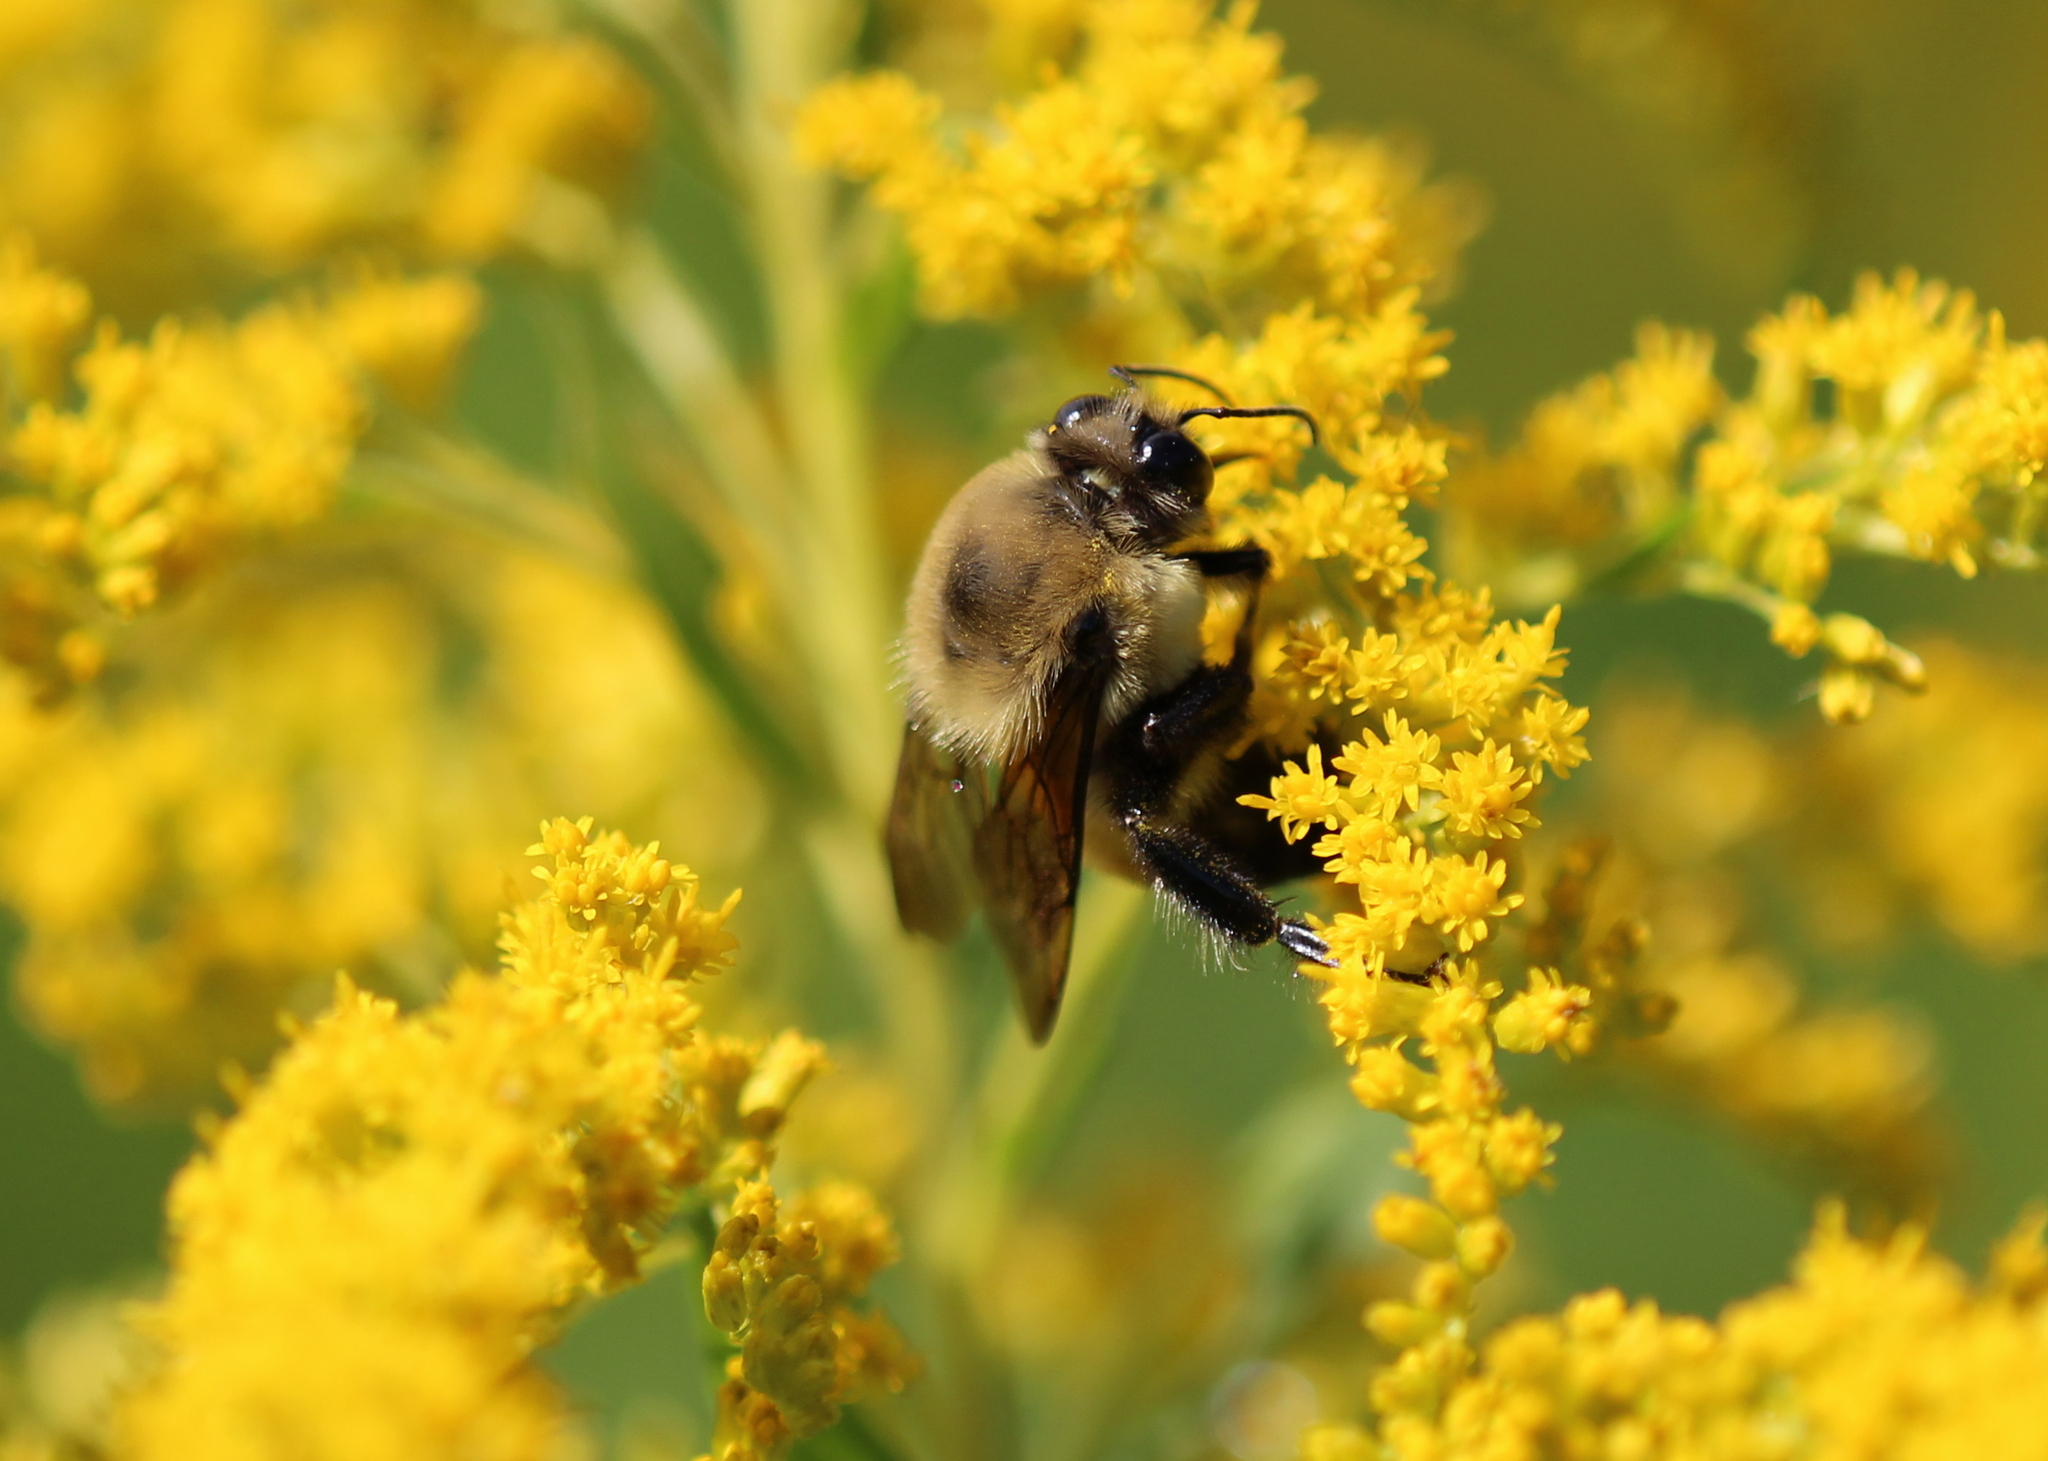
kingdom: Animalia
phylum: Arthropoda
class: Insecta
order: Hymenoptera
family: Apidae
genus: Bombus
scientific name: Bombus griseocollis
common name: Brown-belted bumble bee
